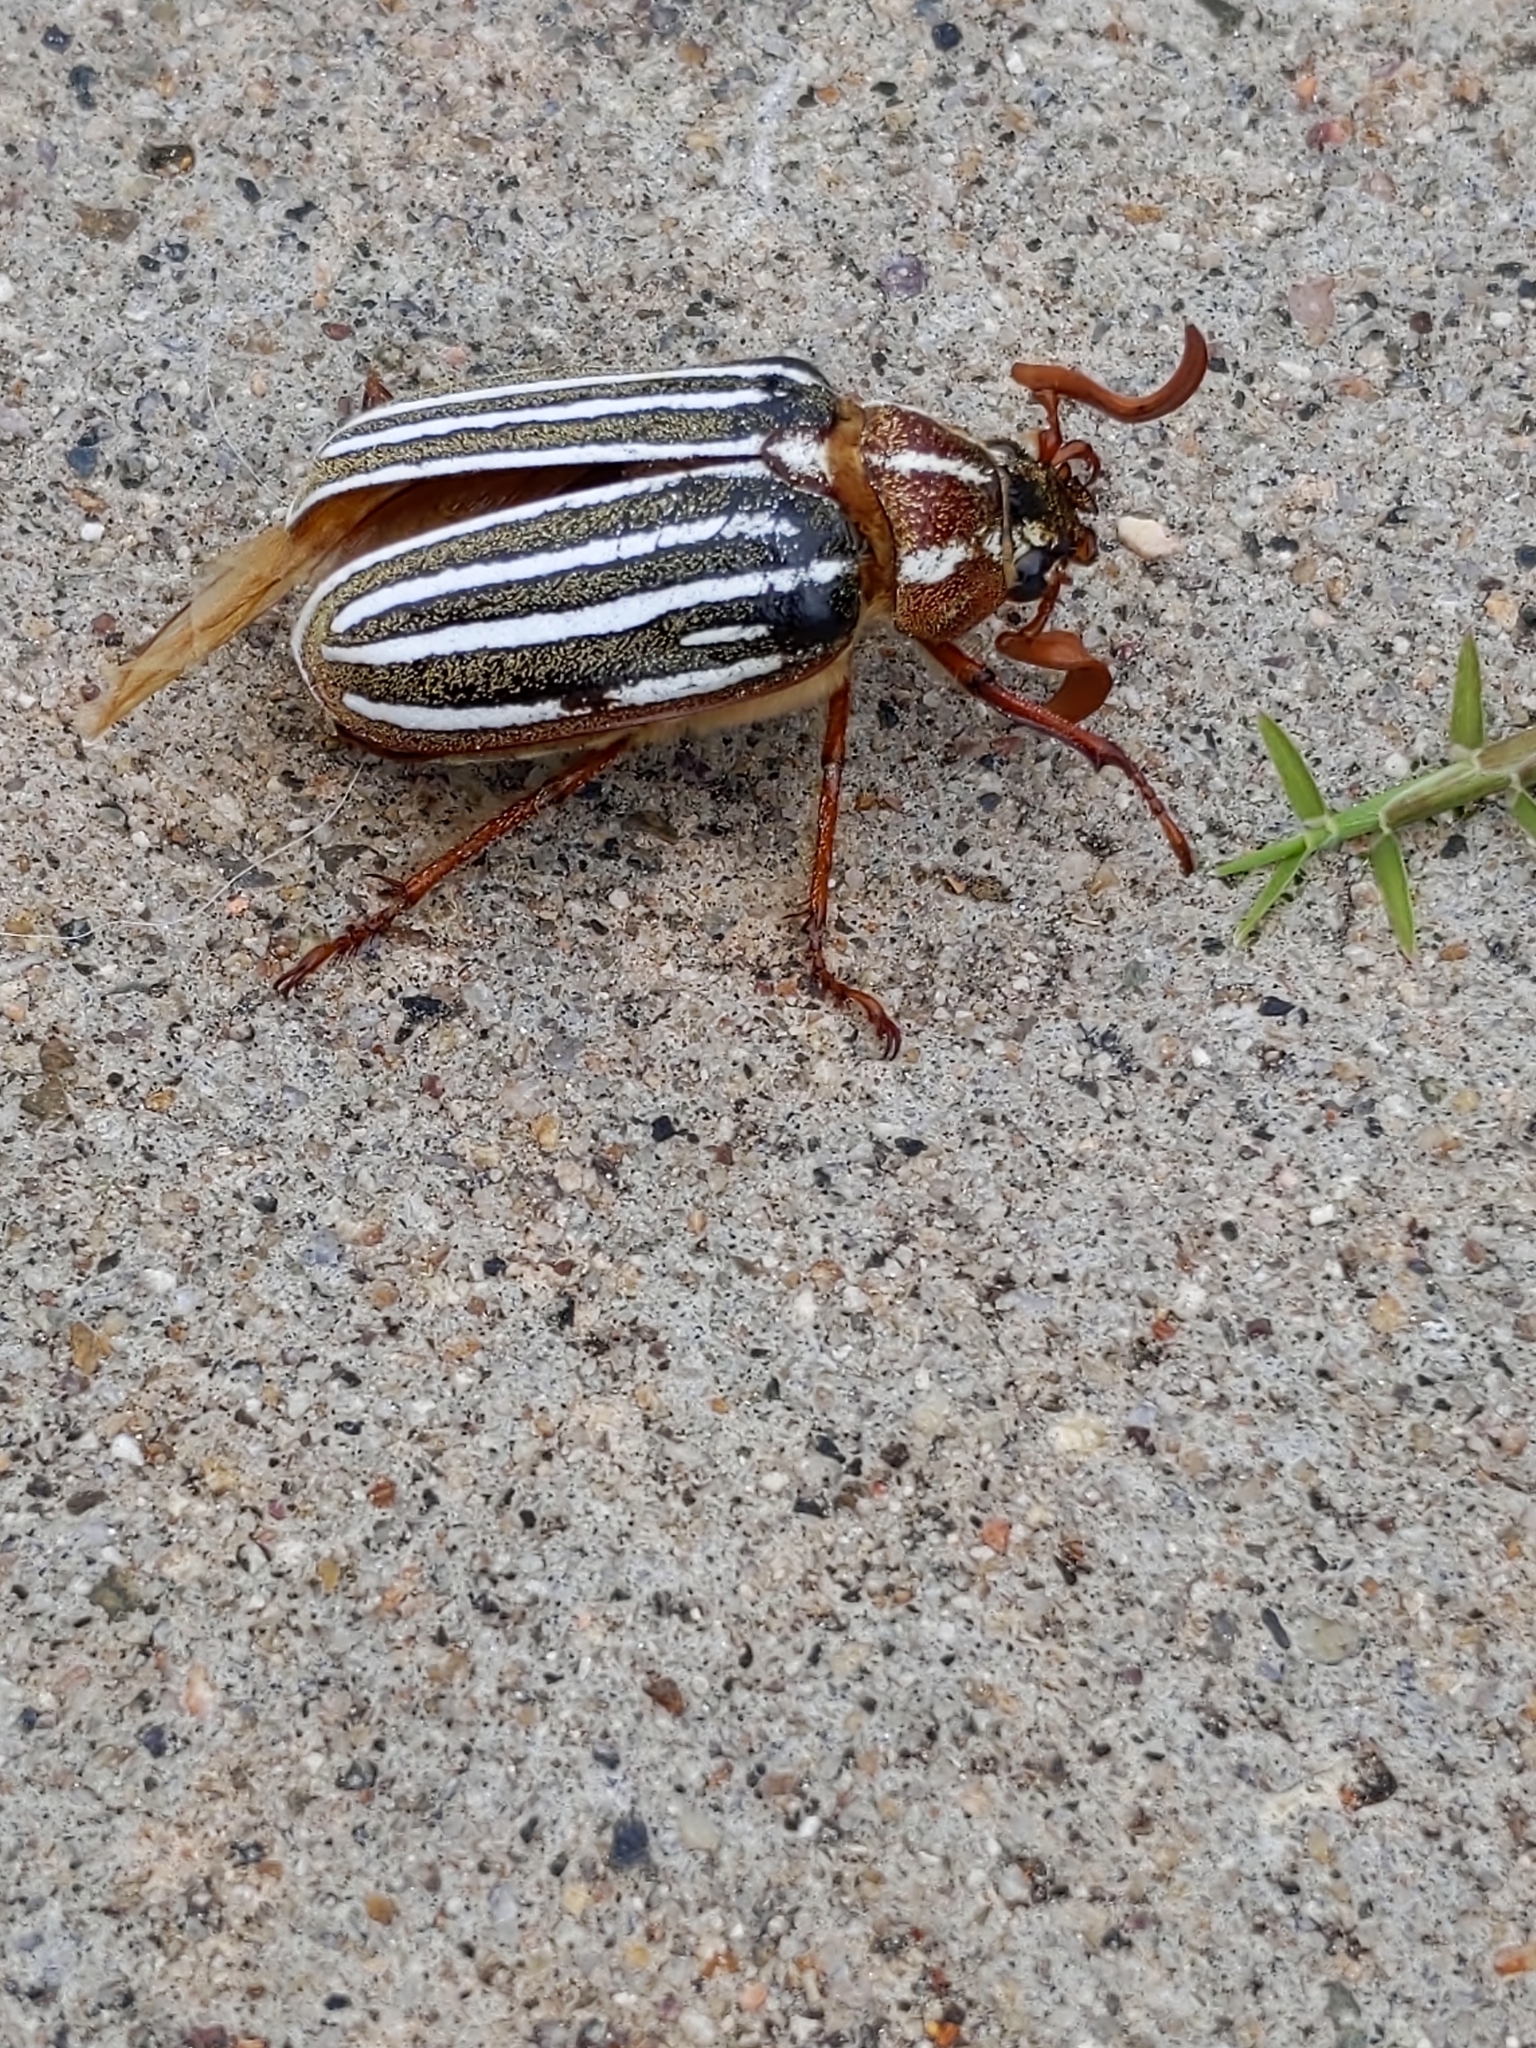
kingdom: Animalia
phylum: Arthropoda
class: Insecta
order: Coleoptera
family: Scarabaeidae
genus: Polyphylla
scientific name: Polyphylla decemlineata
